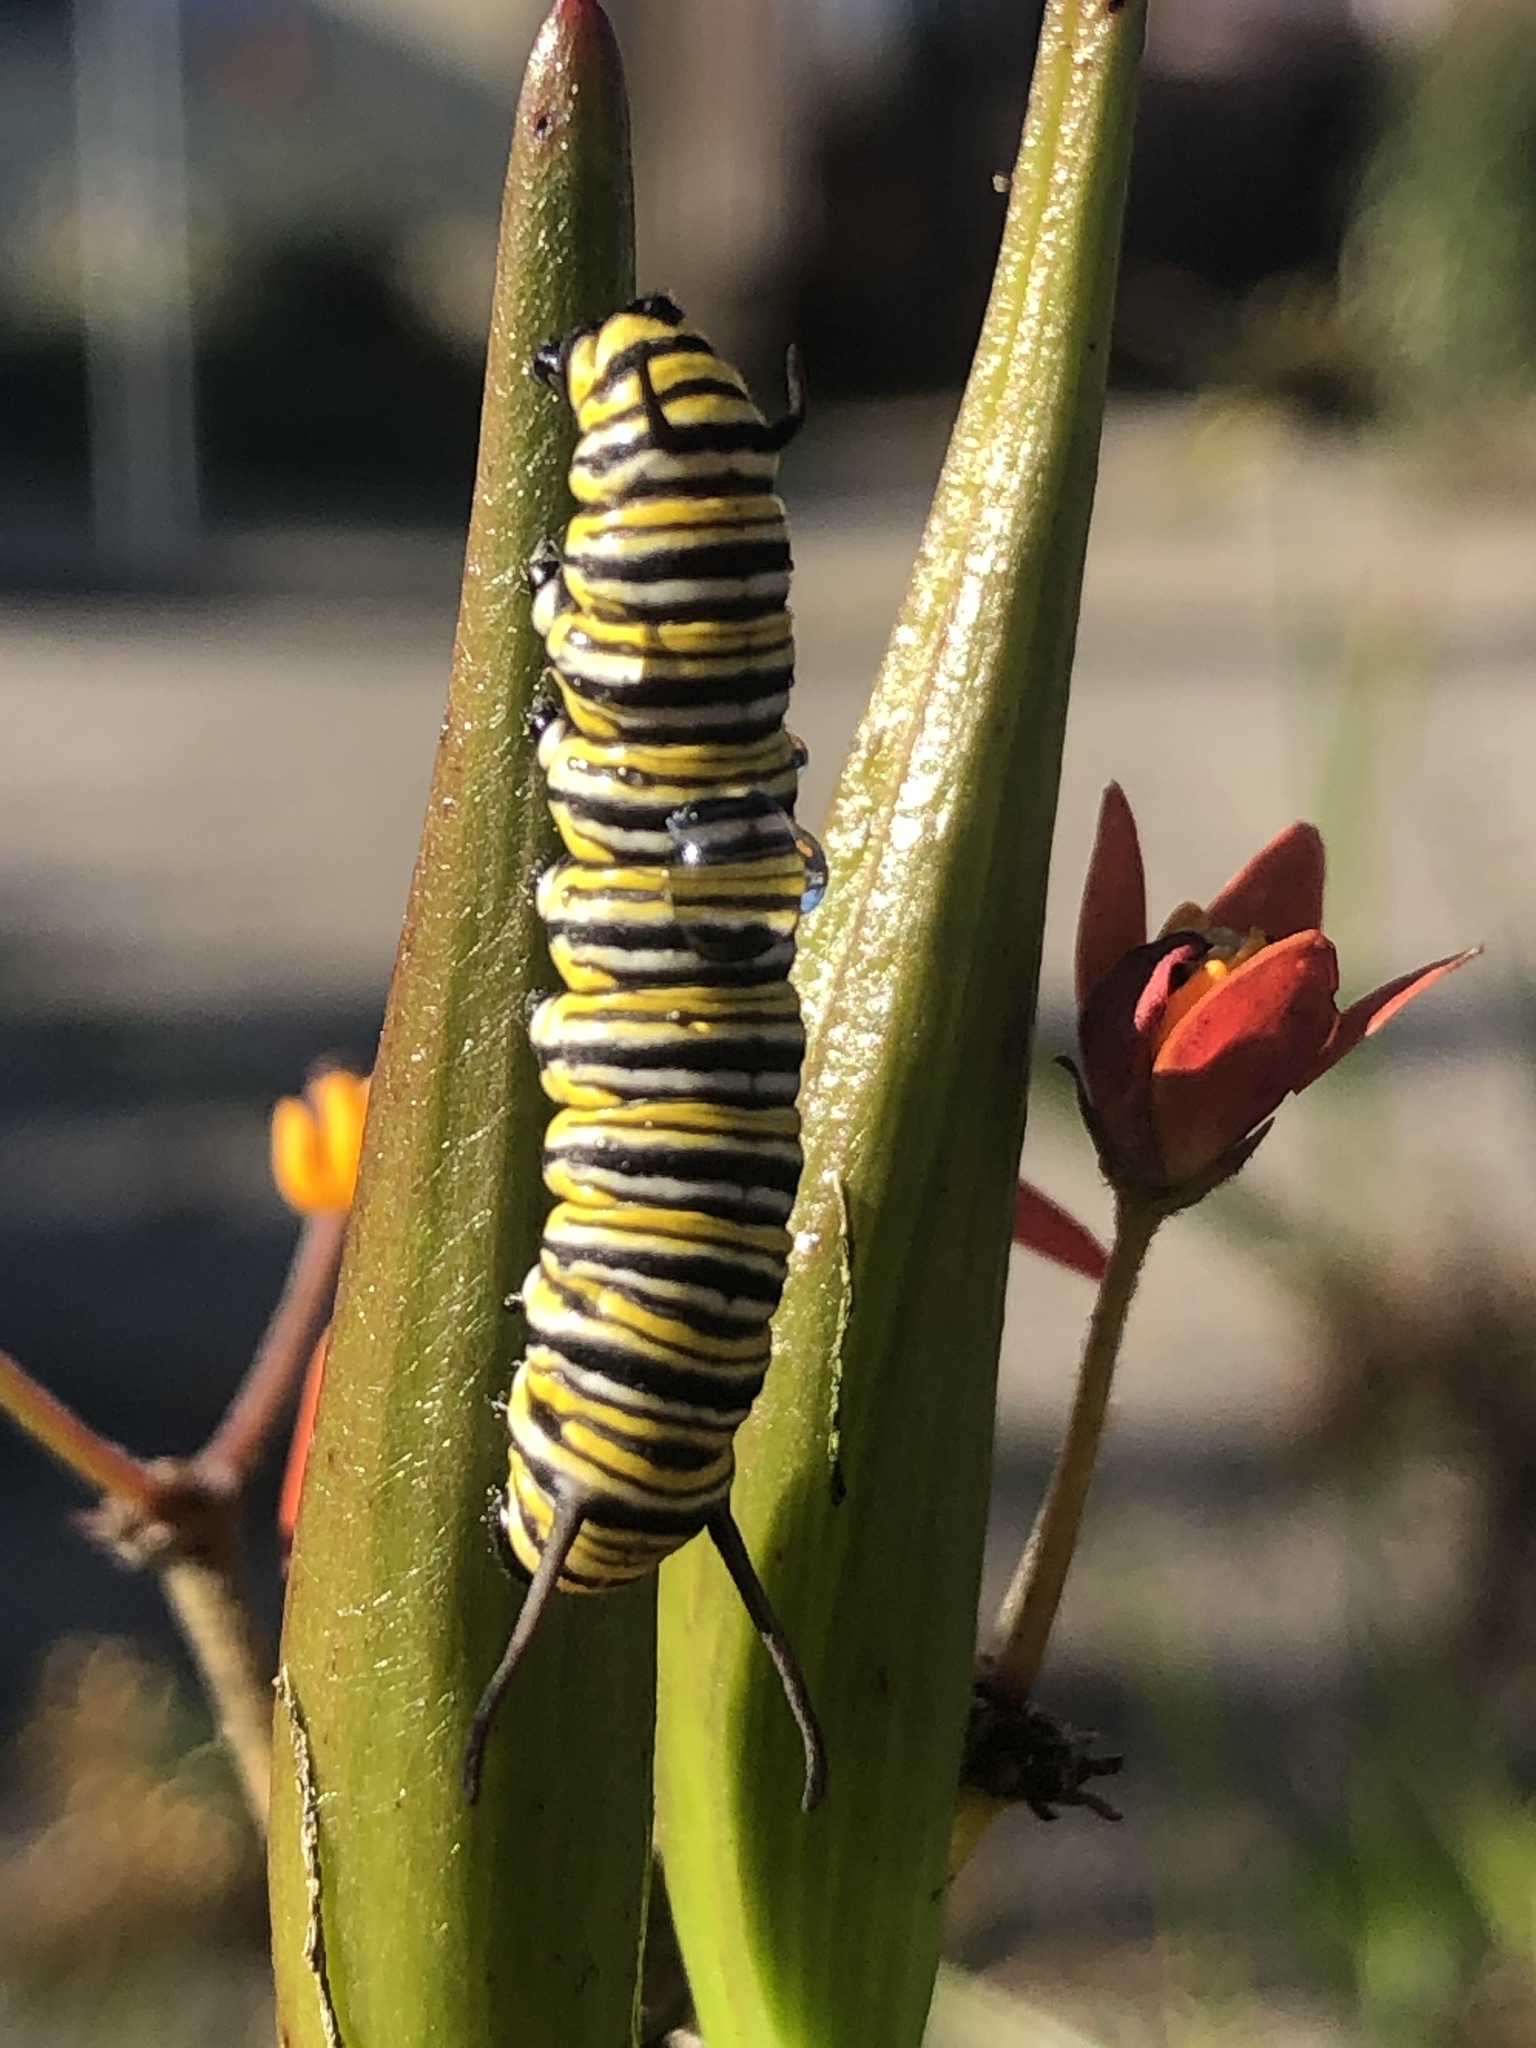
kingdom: Animalia
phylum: Arthropoda
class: Insecta
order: Lepidoptera
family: Nymphalidae
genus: Danaus
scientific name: Danaus plexippus
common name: Monarch
